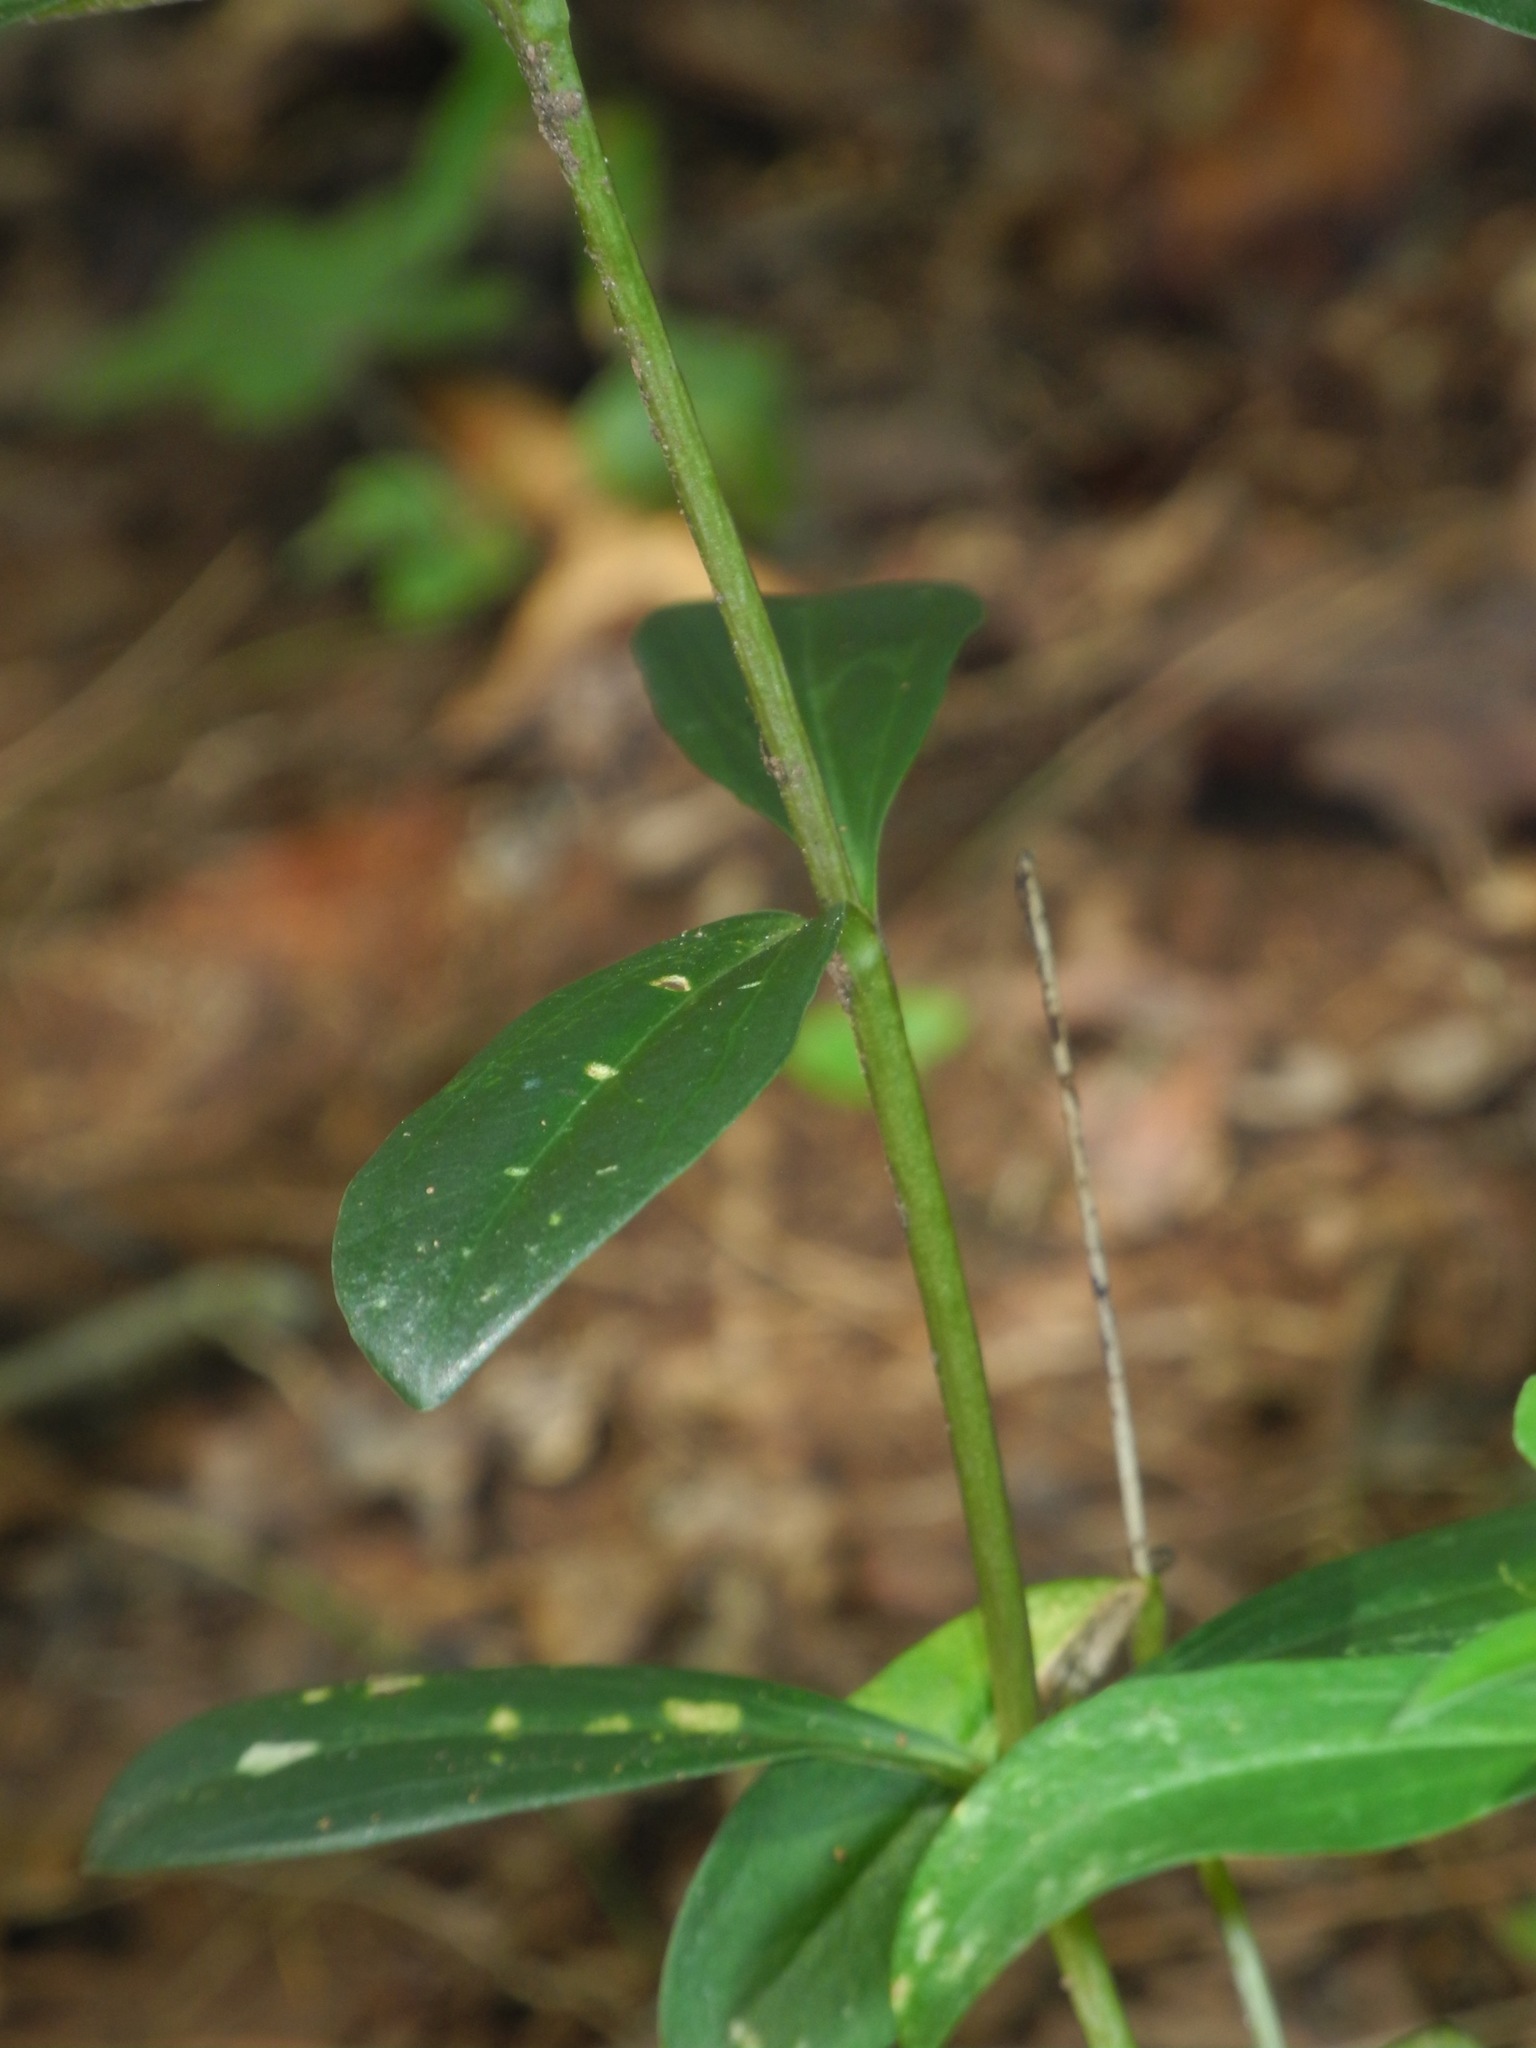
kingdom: Plantae
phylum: Tracheophyta
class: Magnoliopsida
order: Gentianales
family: Gentianaceae
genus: Gentiana
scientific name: Gentiana villosa
